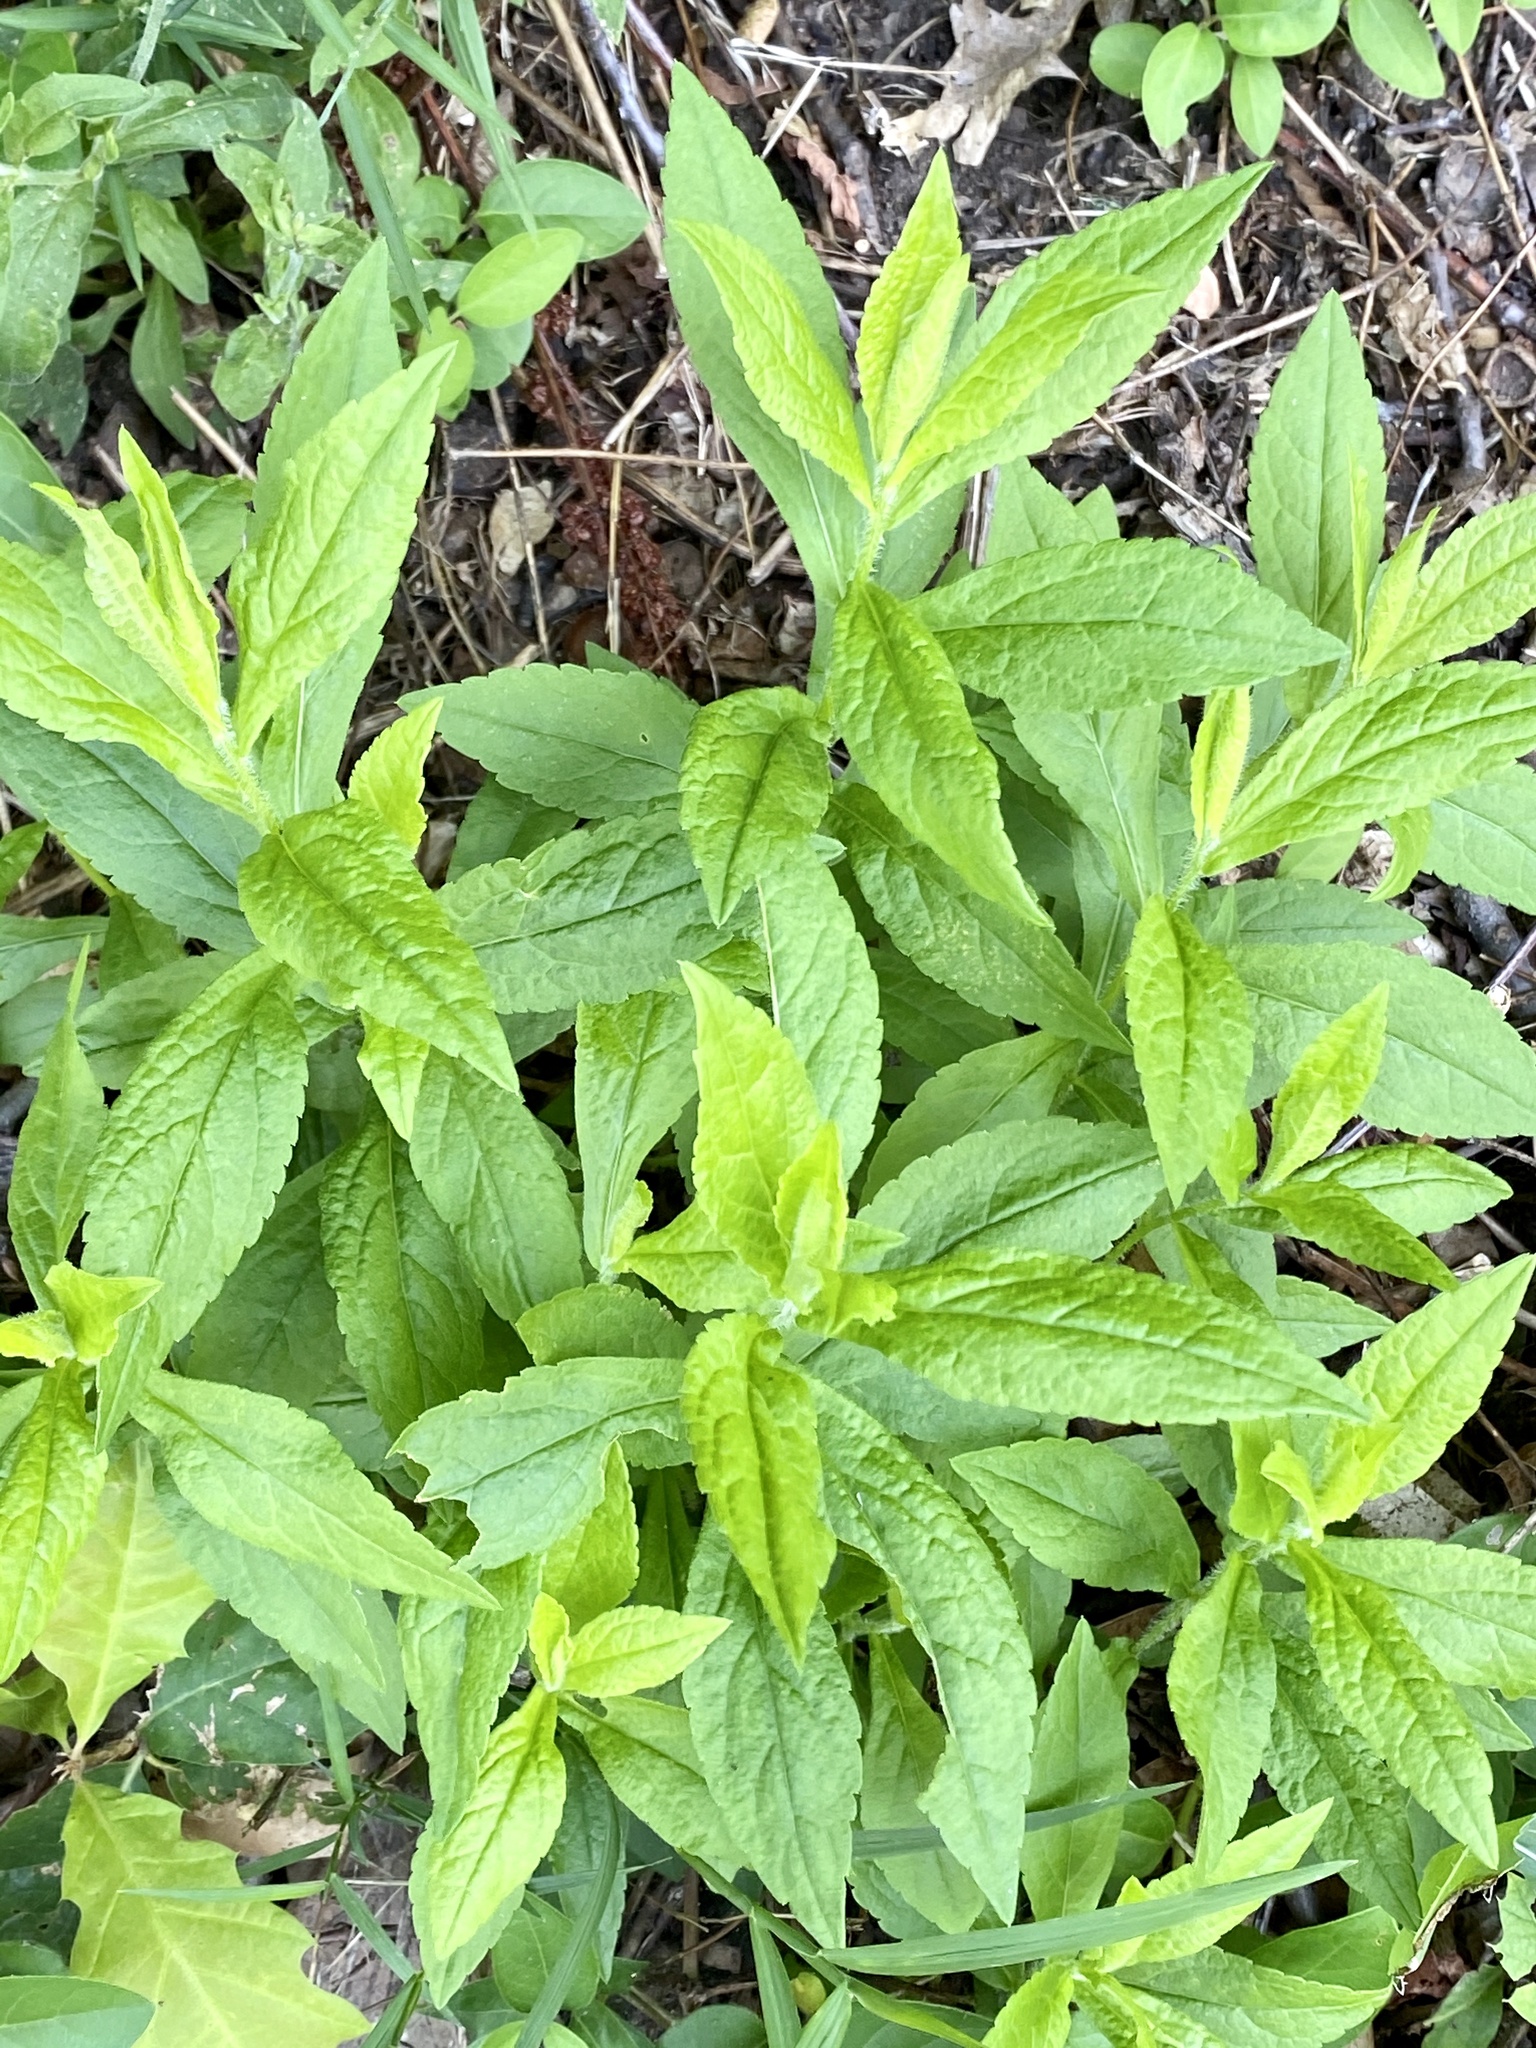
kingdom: Plantae
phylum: Tracheophyta
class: Magnoliopsida
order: Asterales
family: Asteraceae
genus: Solidago
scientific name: Solidago rugosa
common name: Rough-stemmed goldenrod
